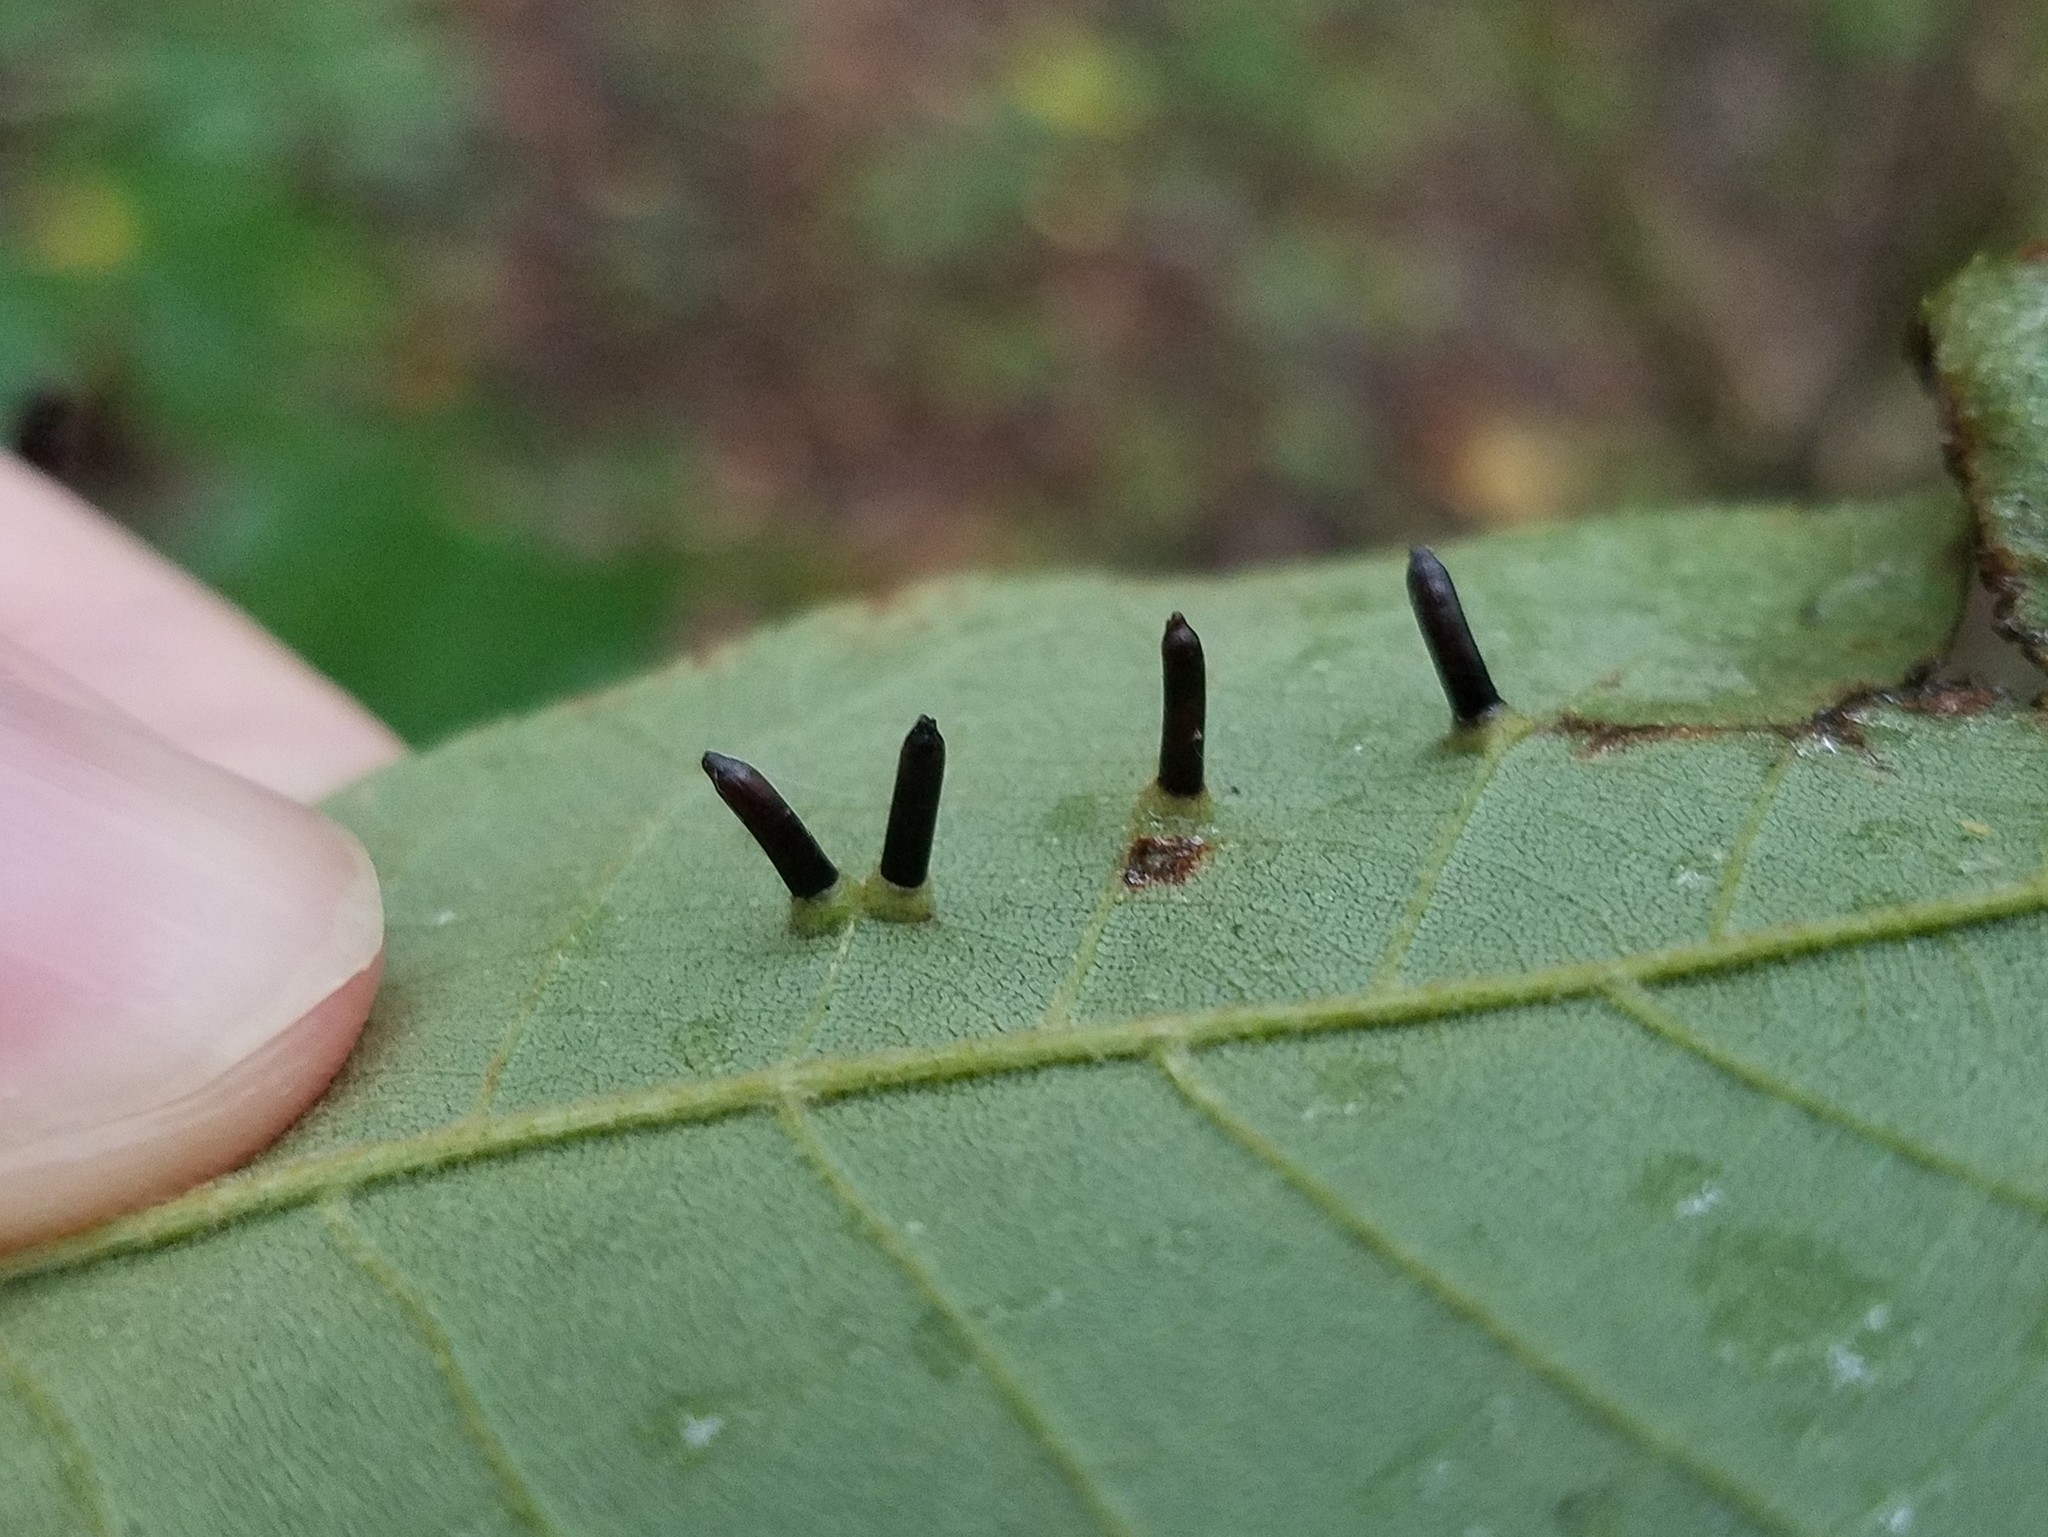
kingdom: Animalia
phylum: Arthropoda
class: Insecta
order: Diptera
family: Cecidomyiidae
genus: Caryomyia
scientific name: Caryomyia tubicola
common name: Hickory bullet gall midge
